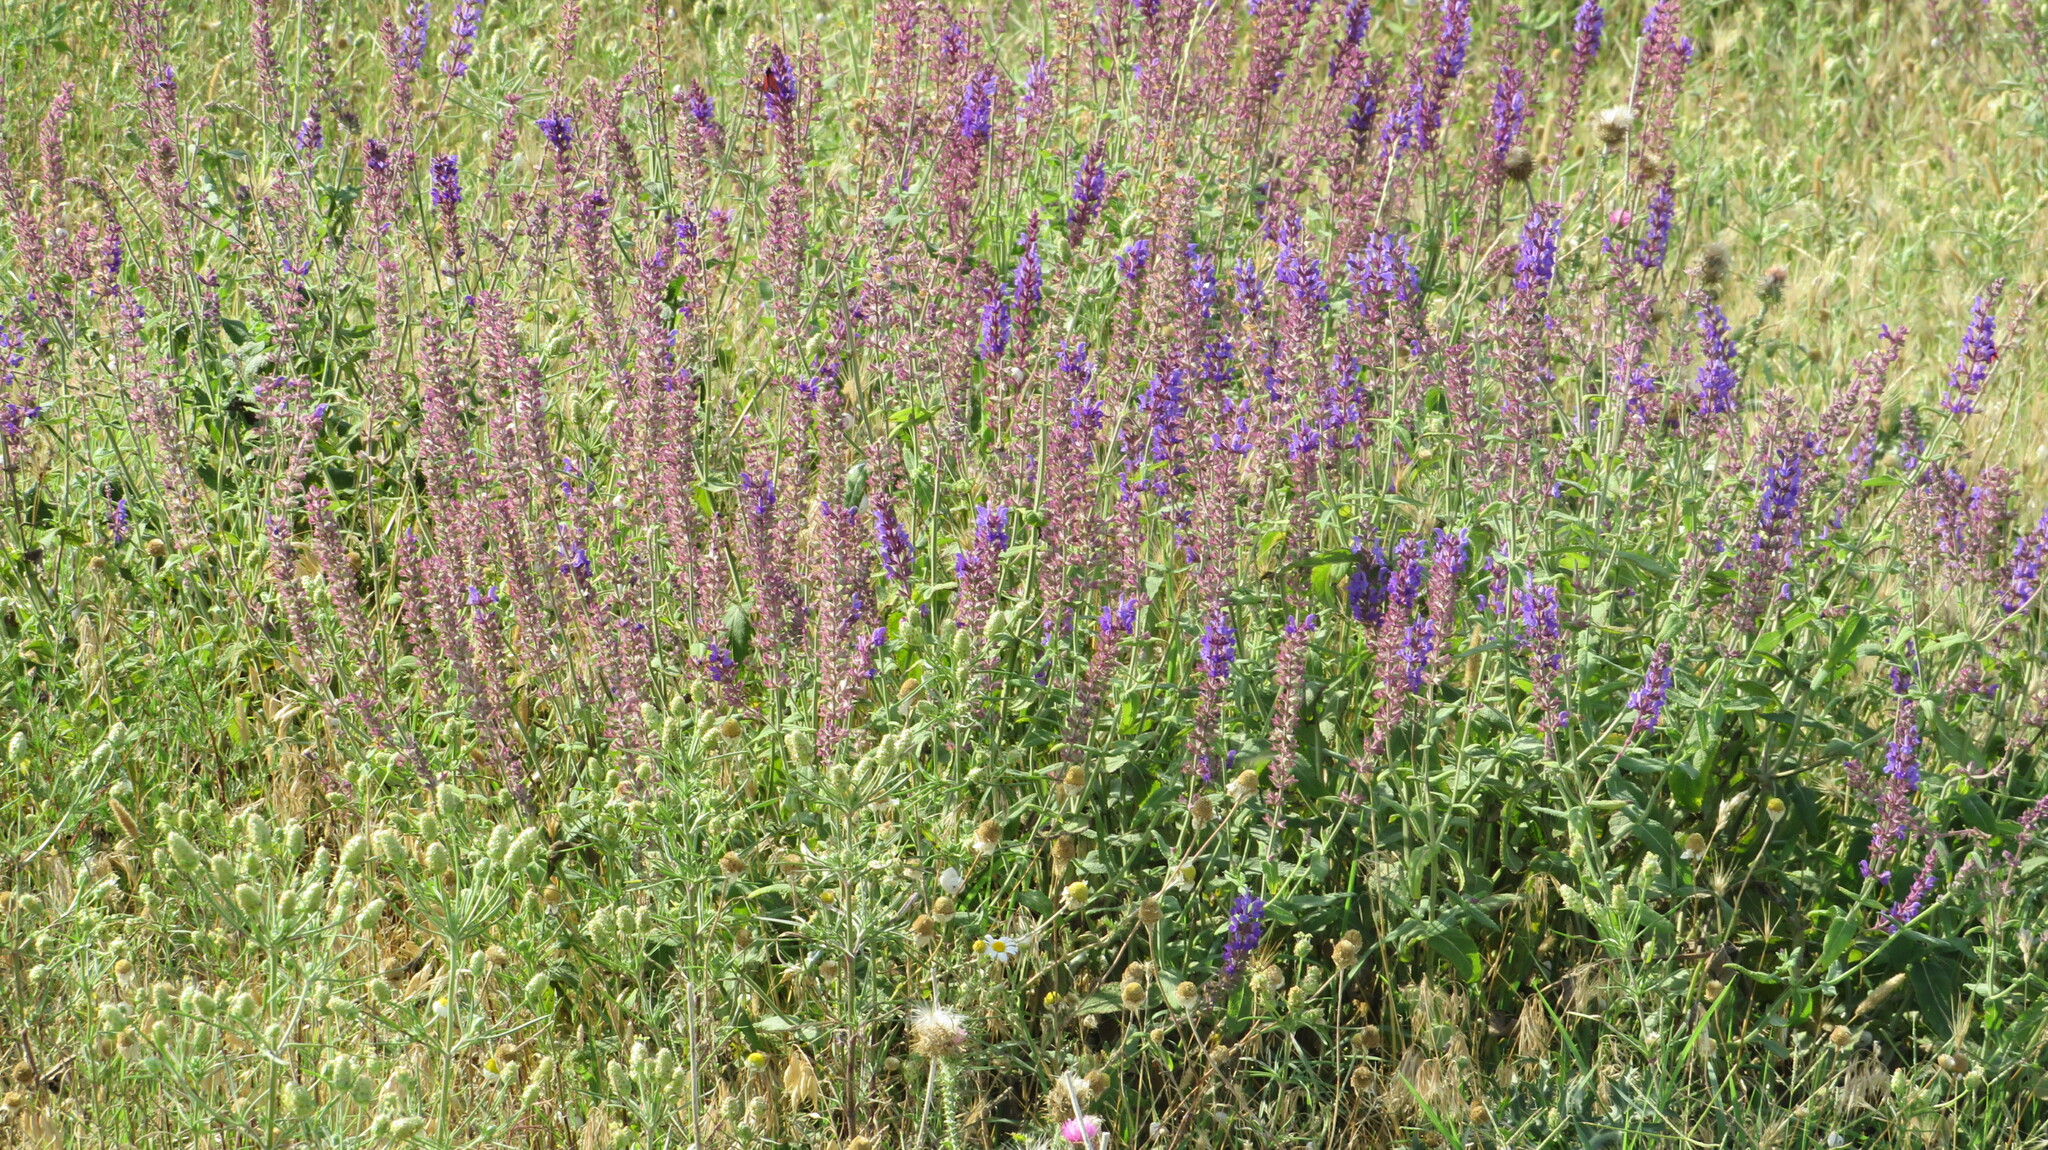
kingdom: Plantae
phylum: Tracheophyta
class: Magnoliopsida
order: Lamiales
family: Lamiaceae
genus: Salvia
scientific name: Salvia nemorosa
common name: Balkan clary
